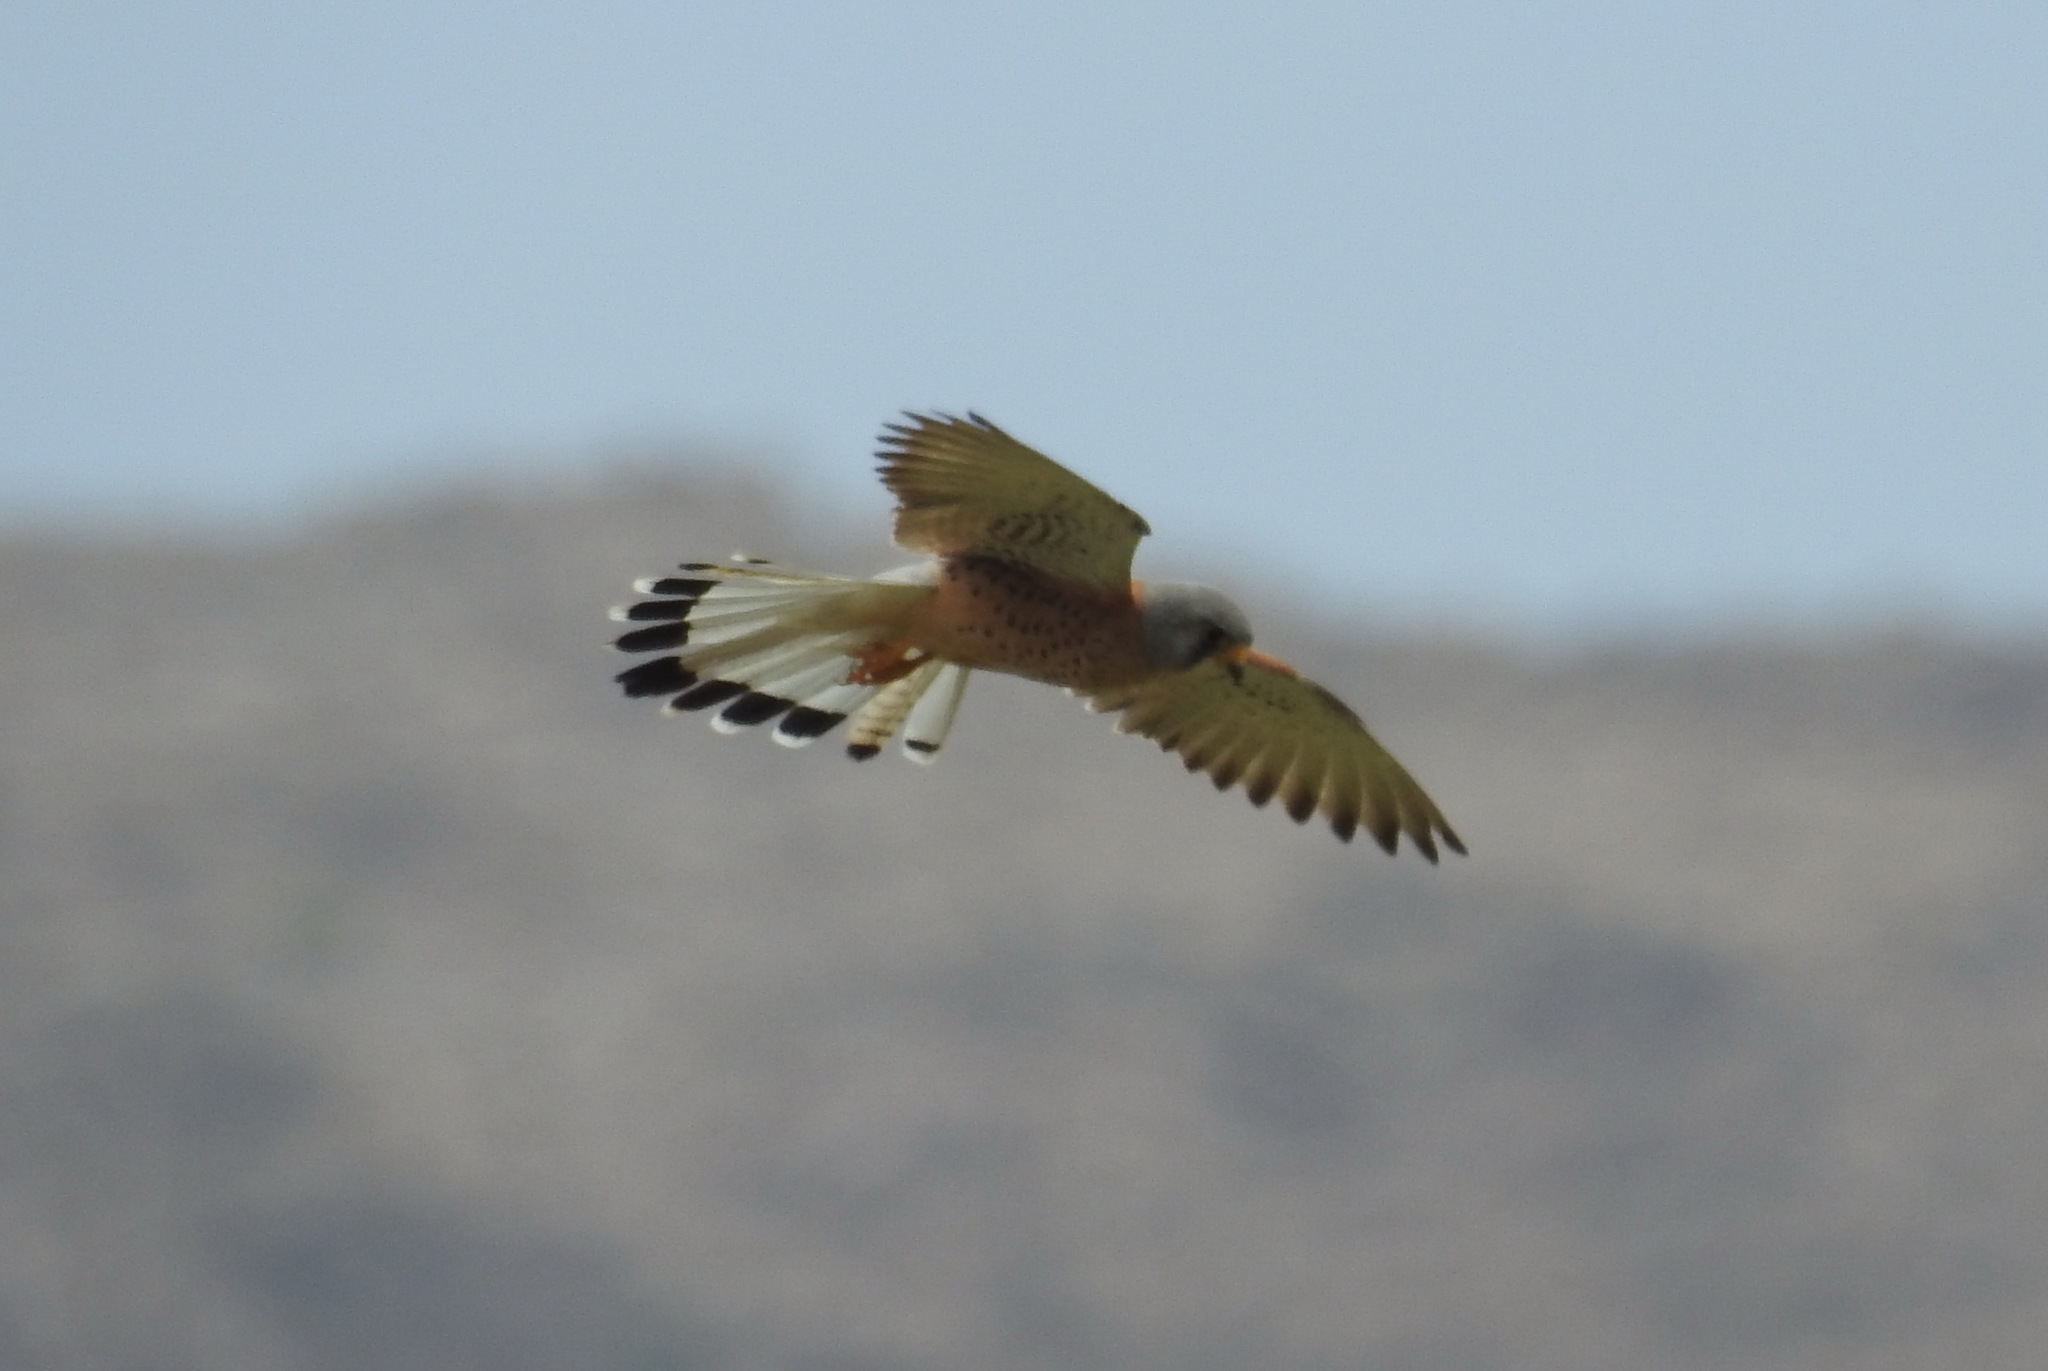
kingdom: Animalia
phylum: Chordata
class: Aves
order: Falconiformes
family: Falconidae
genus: Falco
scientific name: Falco naumanni
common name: Lesser kestrel
